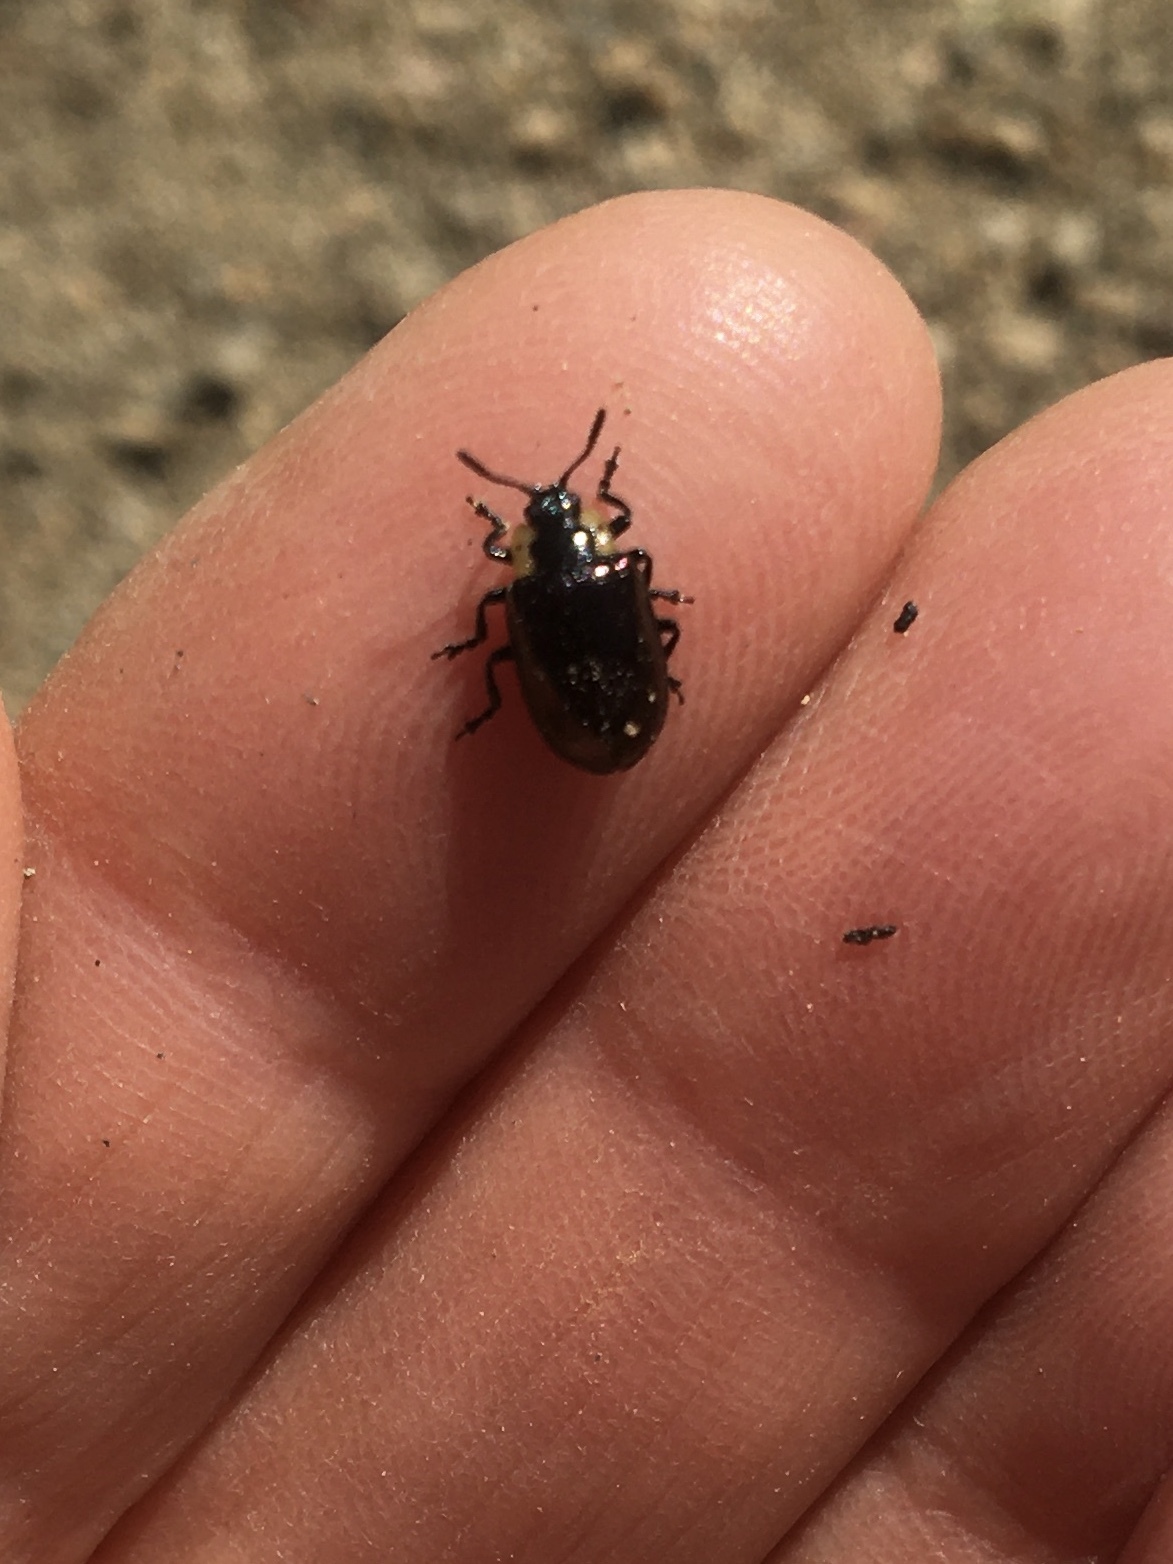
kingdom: Animalia
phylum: Arthropoda
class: Insecta
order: Coleoptera
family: Chrysomelidae
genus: Chrysomela
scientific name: Chrysomela schaefferi
